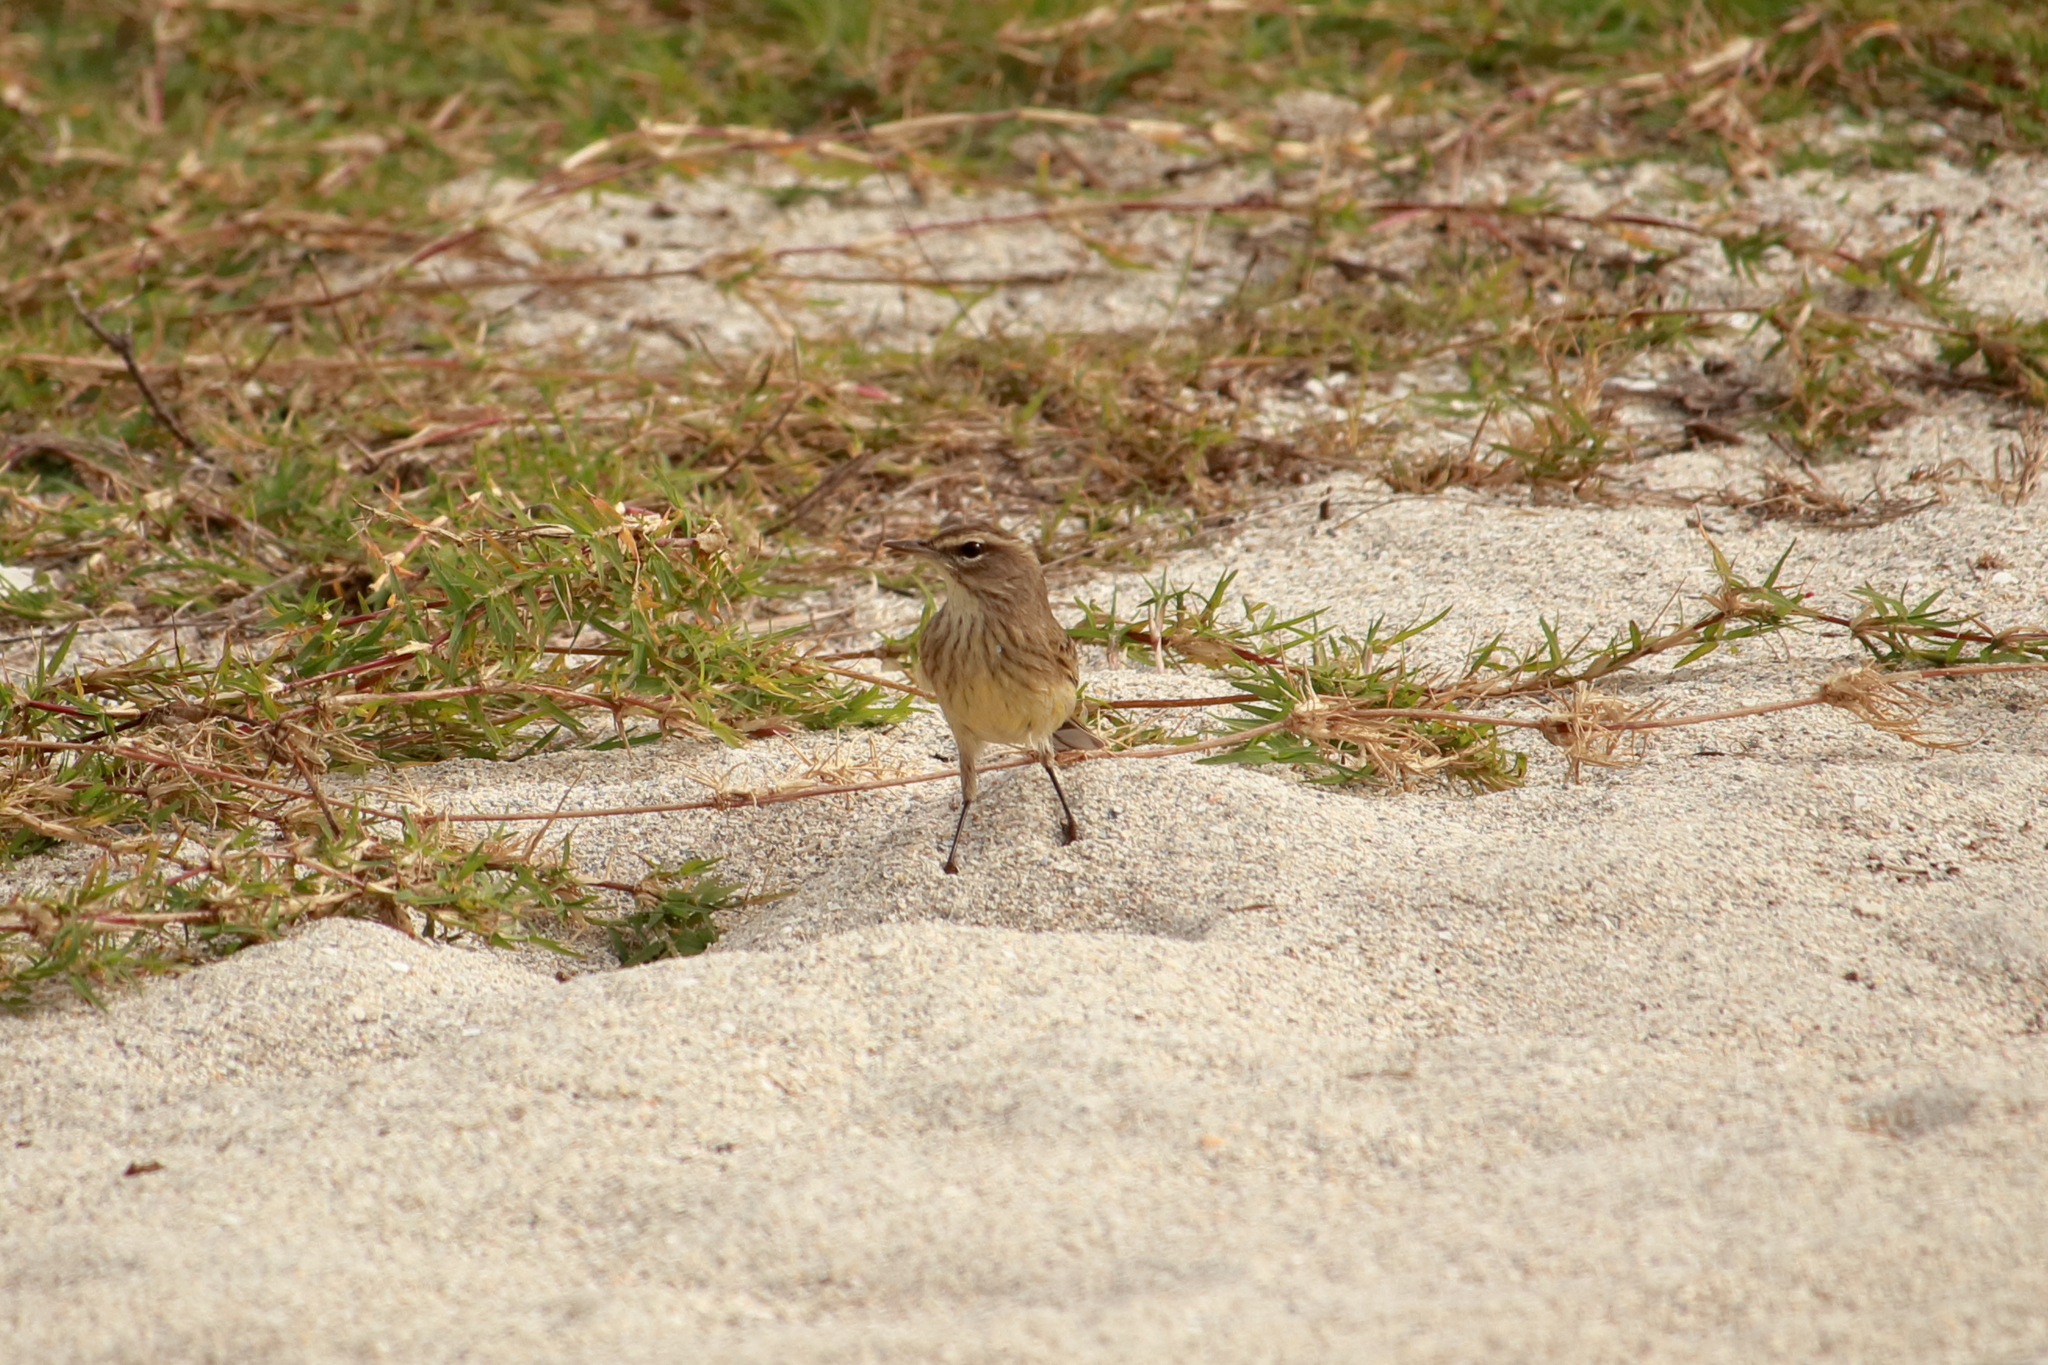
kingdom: Animalia
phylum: Chordata
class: Aves
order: Passeriformes
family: Parulidae
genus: Setophaga
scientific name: Setophaga palmarum
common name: Palm warbler
